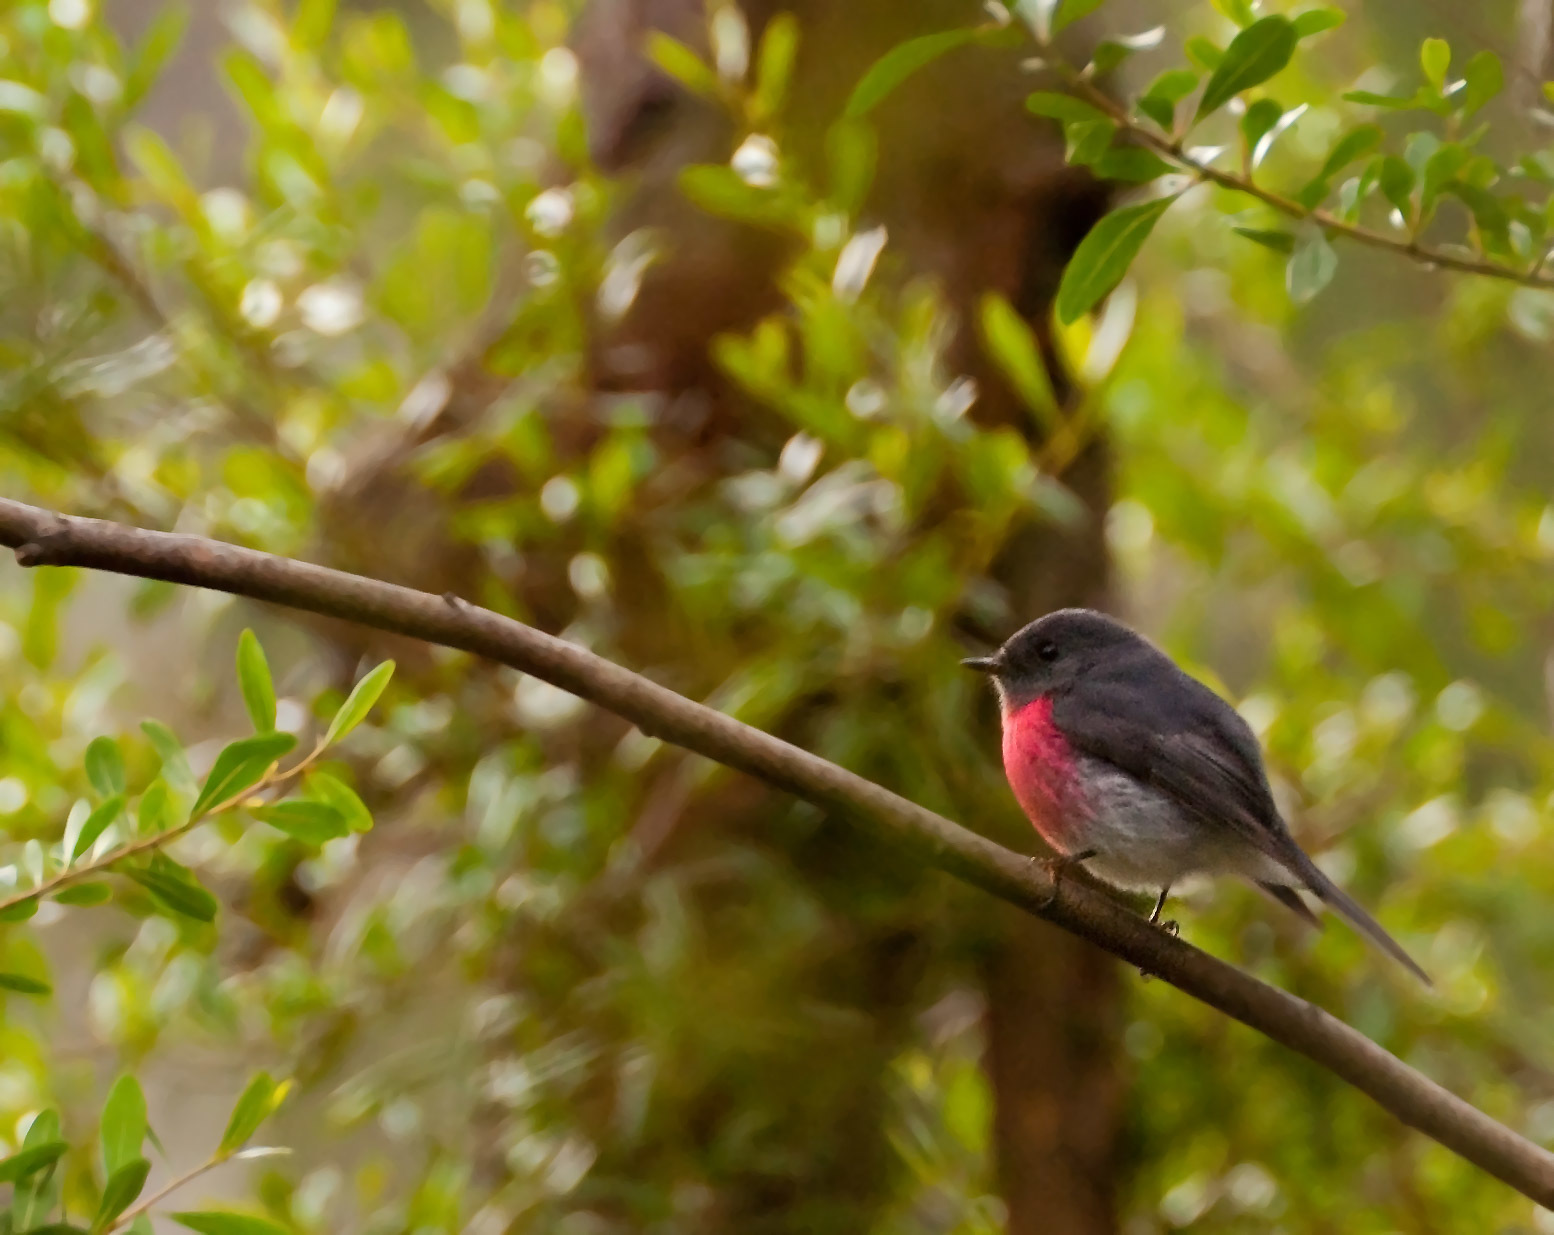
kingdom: Animalia
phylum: Chordata
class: Aves
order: Passeriformes
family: Petroicidae
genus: Petroica
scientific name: Petroica rosea
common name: Rose robin
